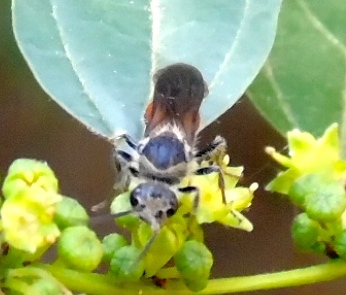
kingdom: Animalia
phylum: Arthropoda
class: Insecta
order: Hymenoptera
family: Mutillidae
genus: Timulla
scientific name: Timulla
